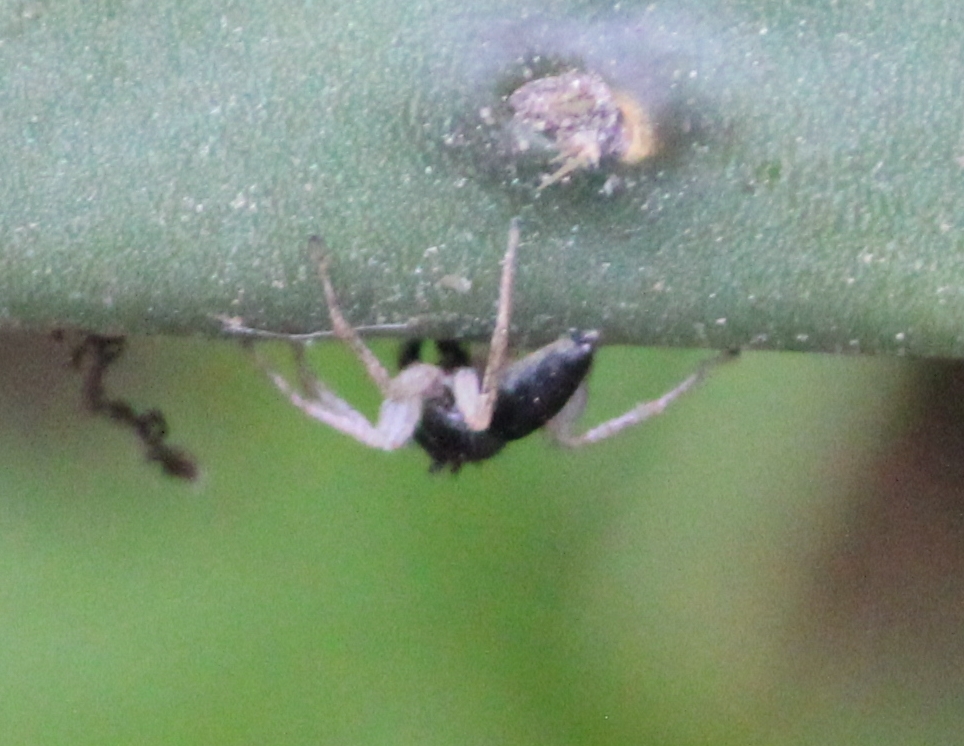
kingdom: Animalia
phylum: Arthropoda
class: Arachnida
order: Araneae
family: Salticidae
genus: Maevia
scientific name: Maevia inclemens
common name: Dimorphic jumper
